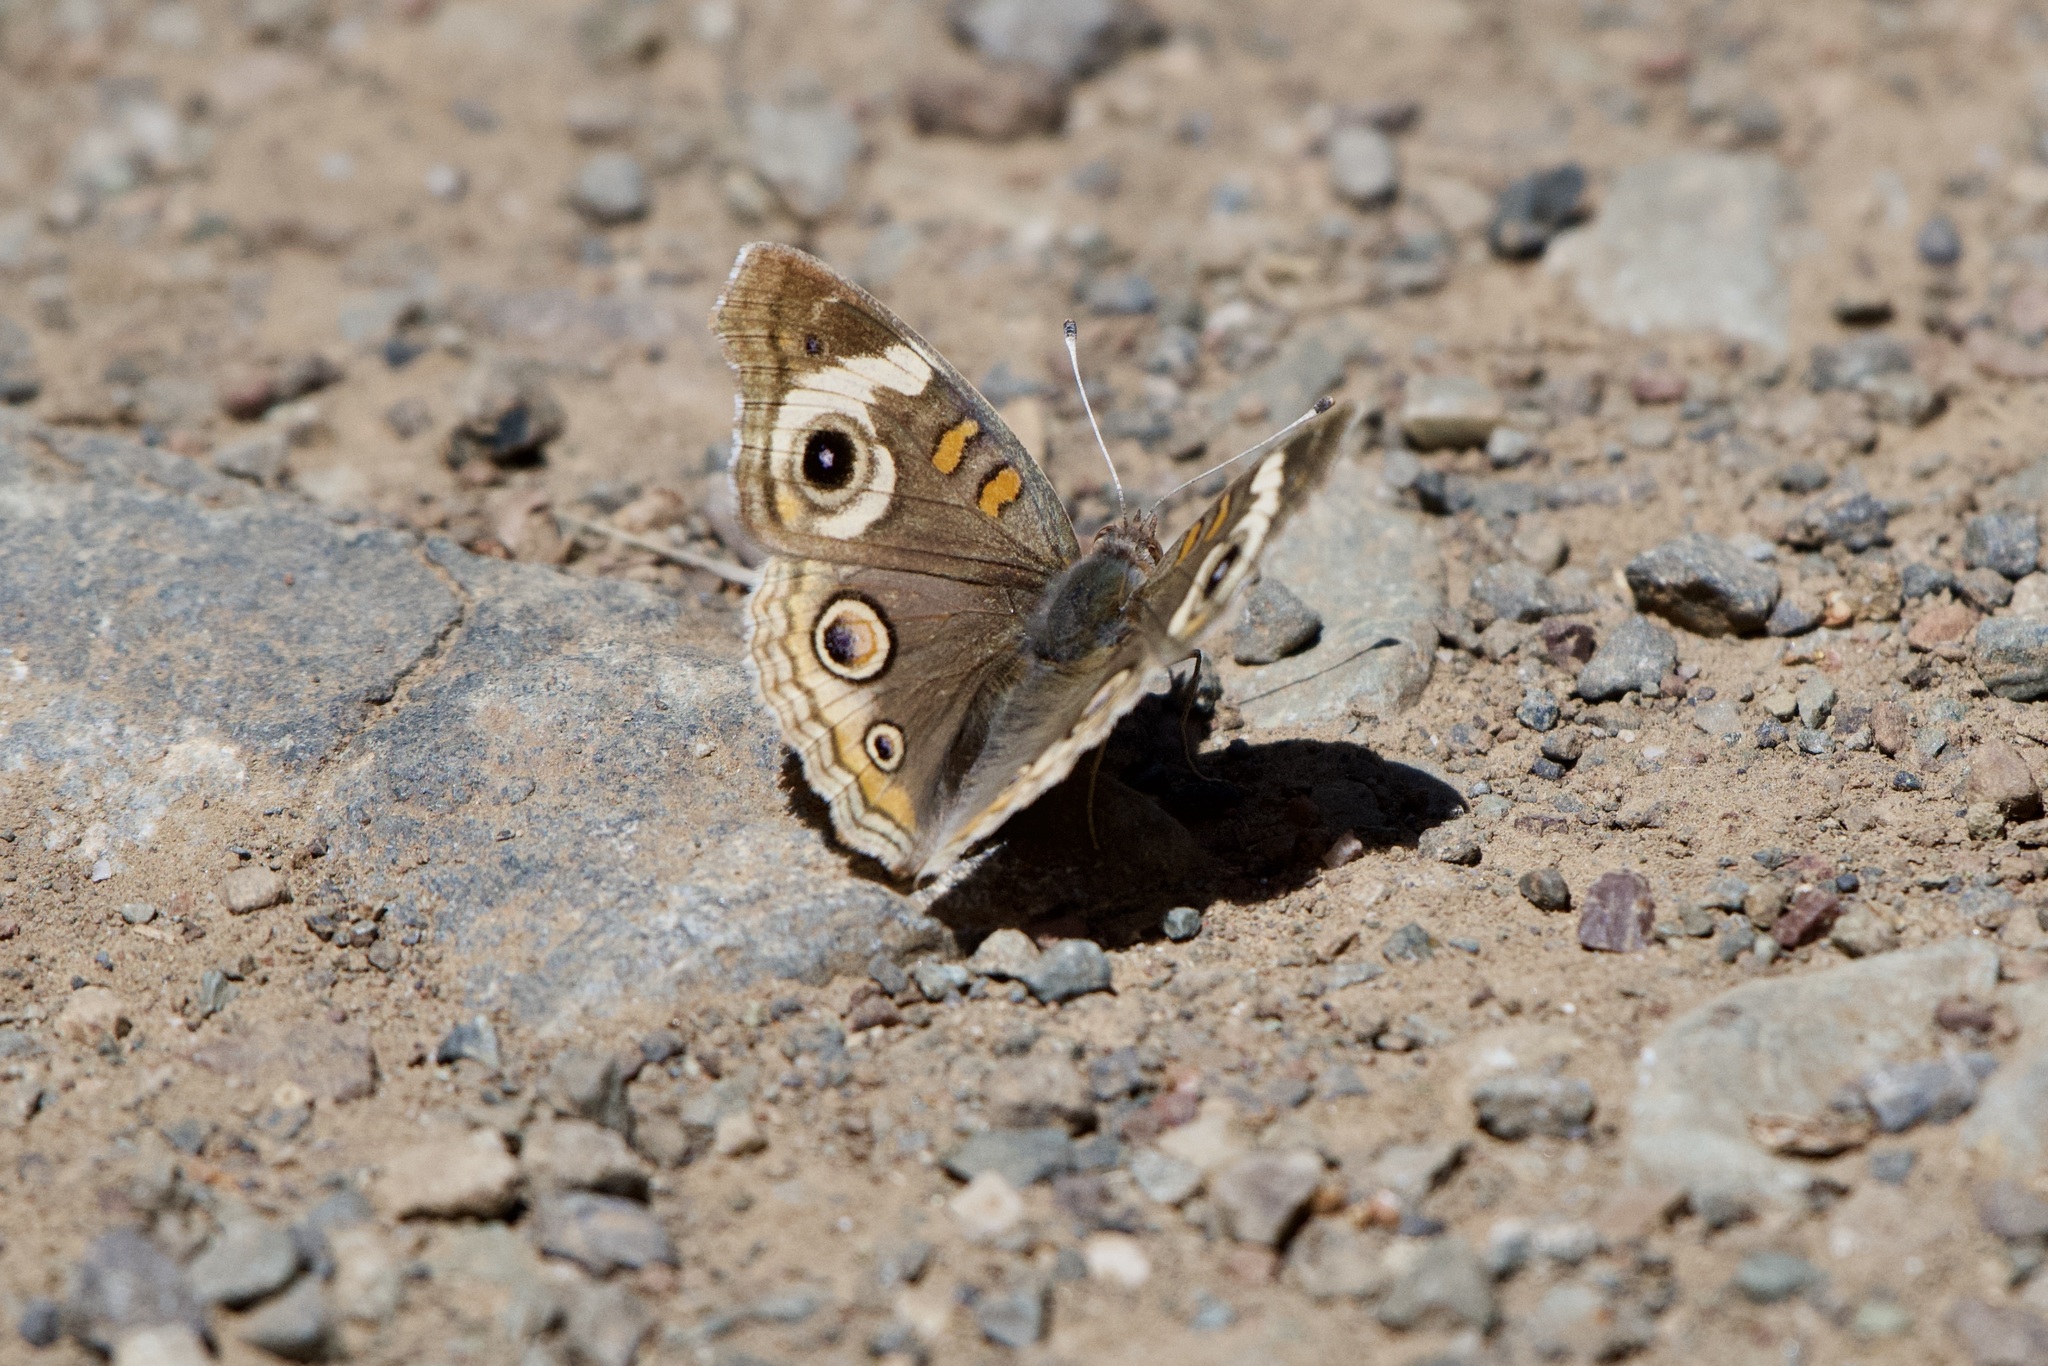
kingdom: Animalia
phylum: Arthropoda
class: Insecta
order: Lepidoptera
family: Nymphalidae
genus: Junonia
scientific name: Junonia grisea
